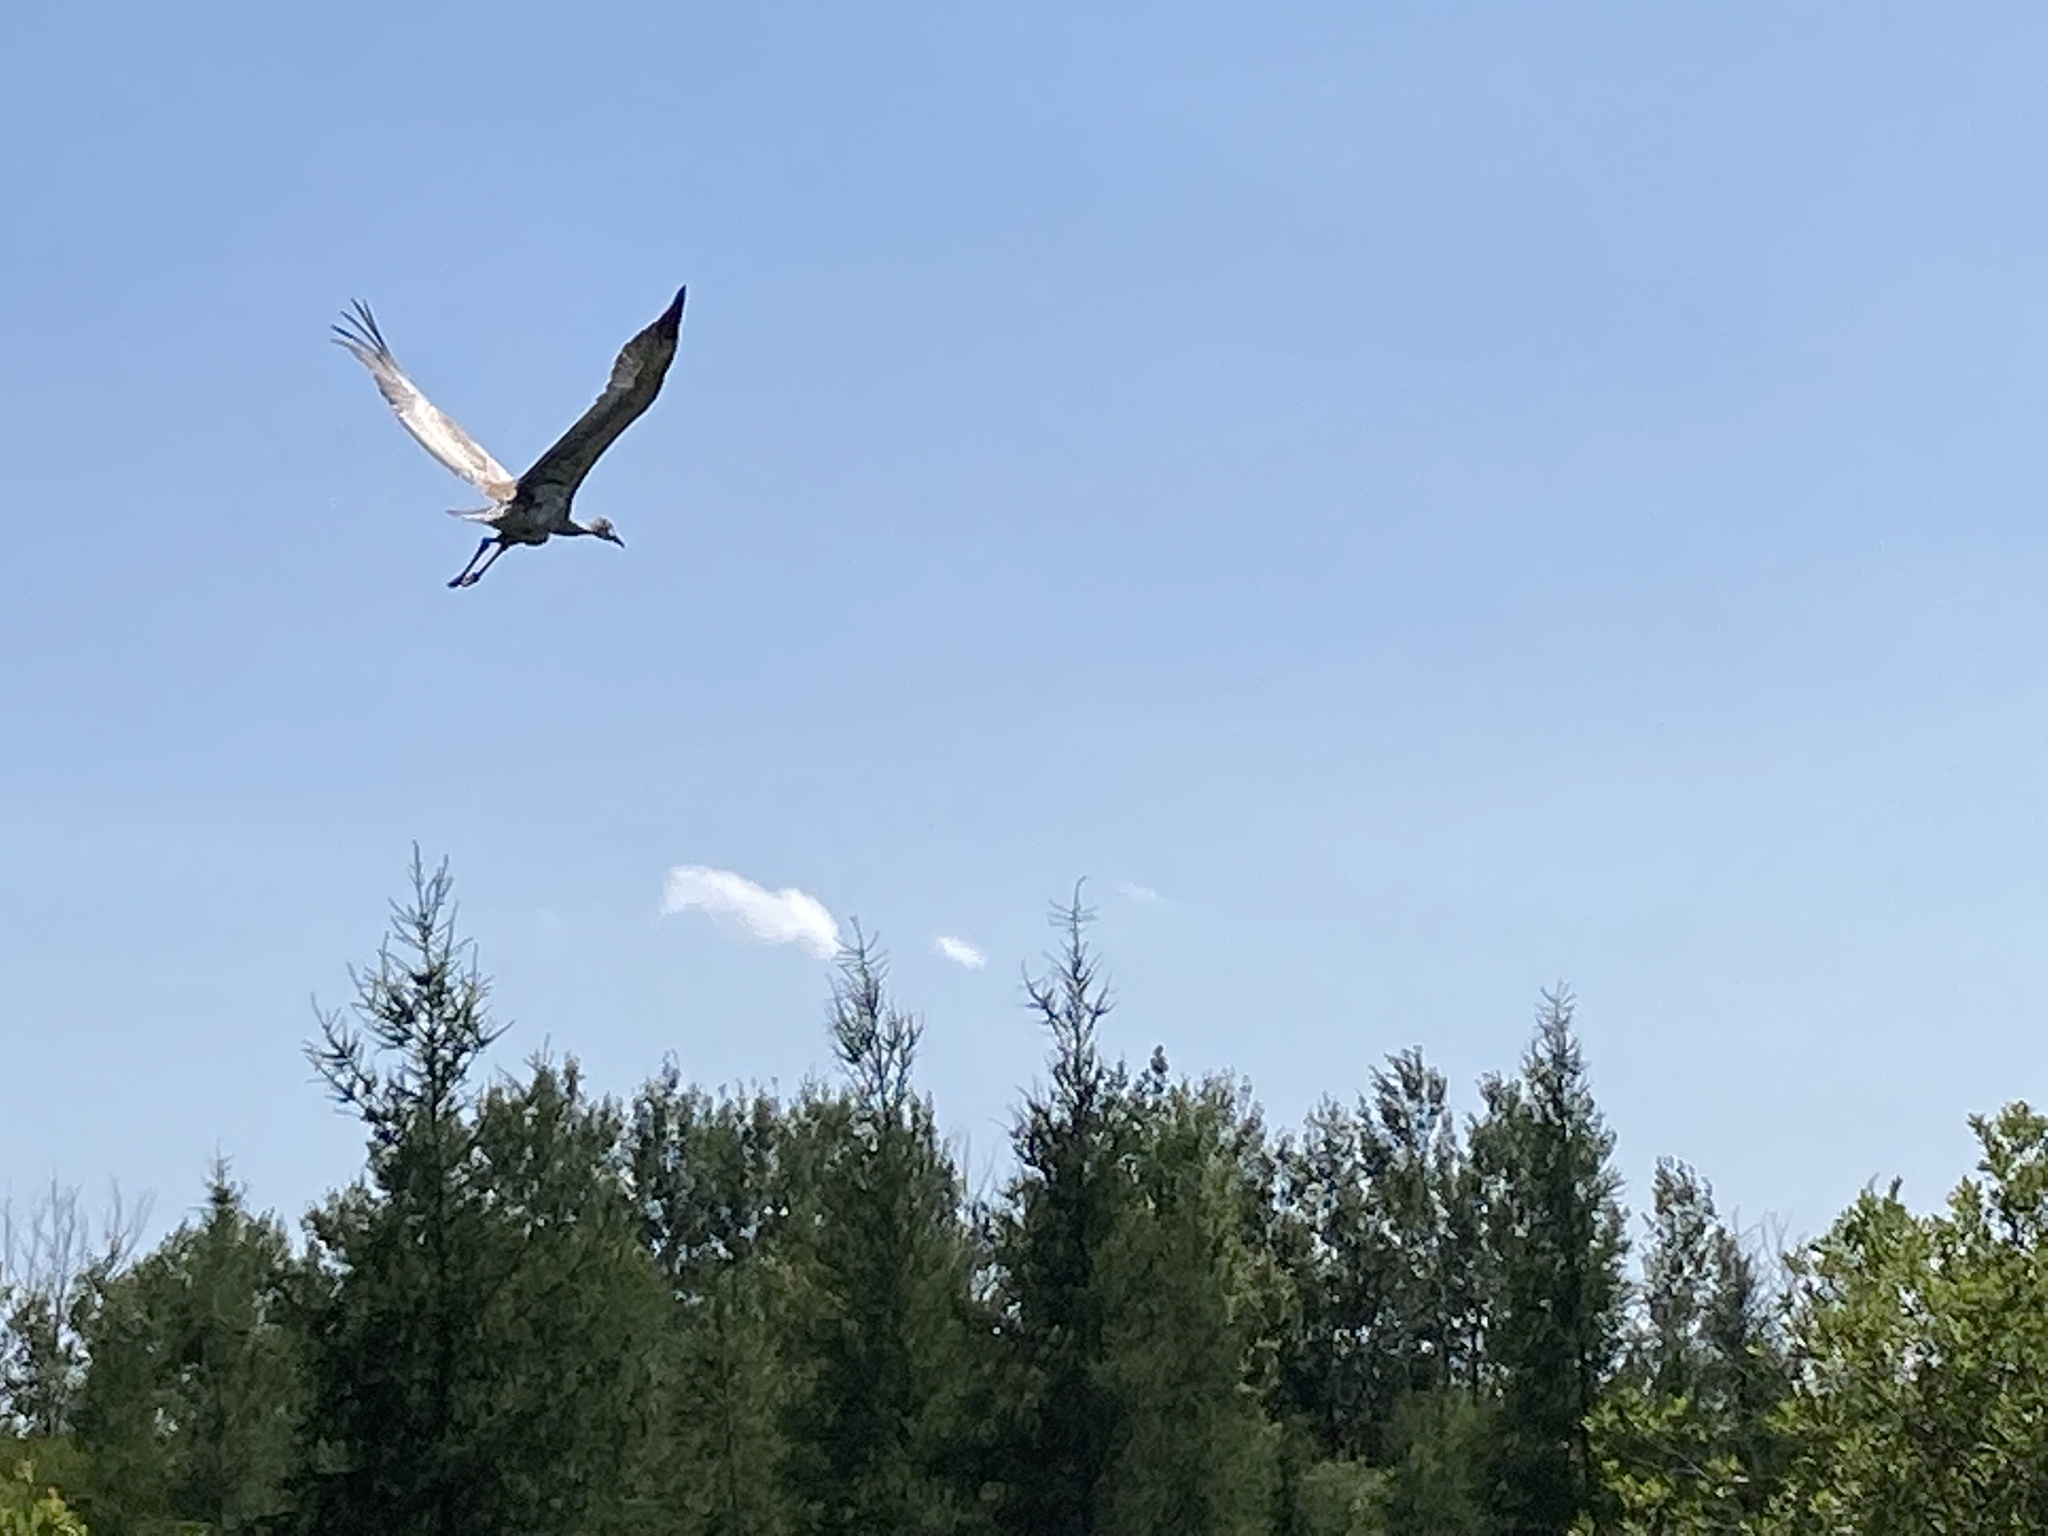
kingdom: Animalia
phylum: Chordata
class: Aves
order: Gruiformes
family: Gruidae
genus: Grus
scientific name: Grus canadensis
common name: Sandhill crane
